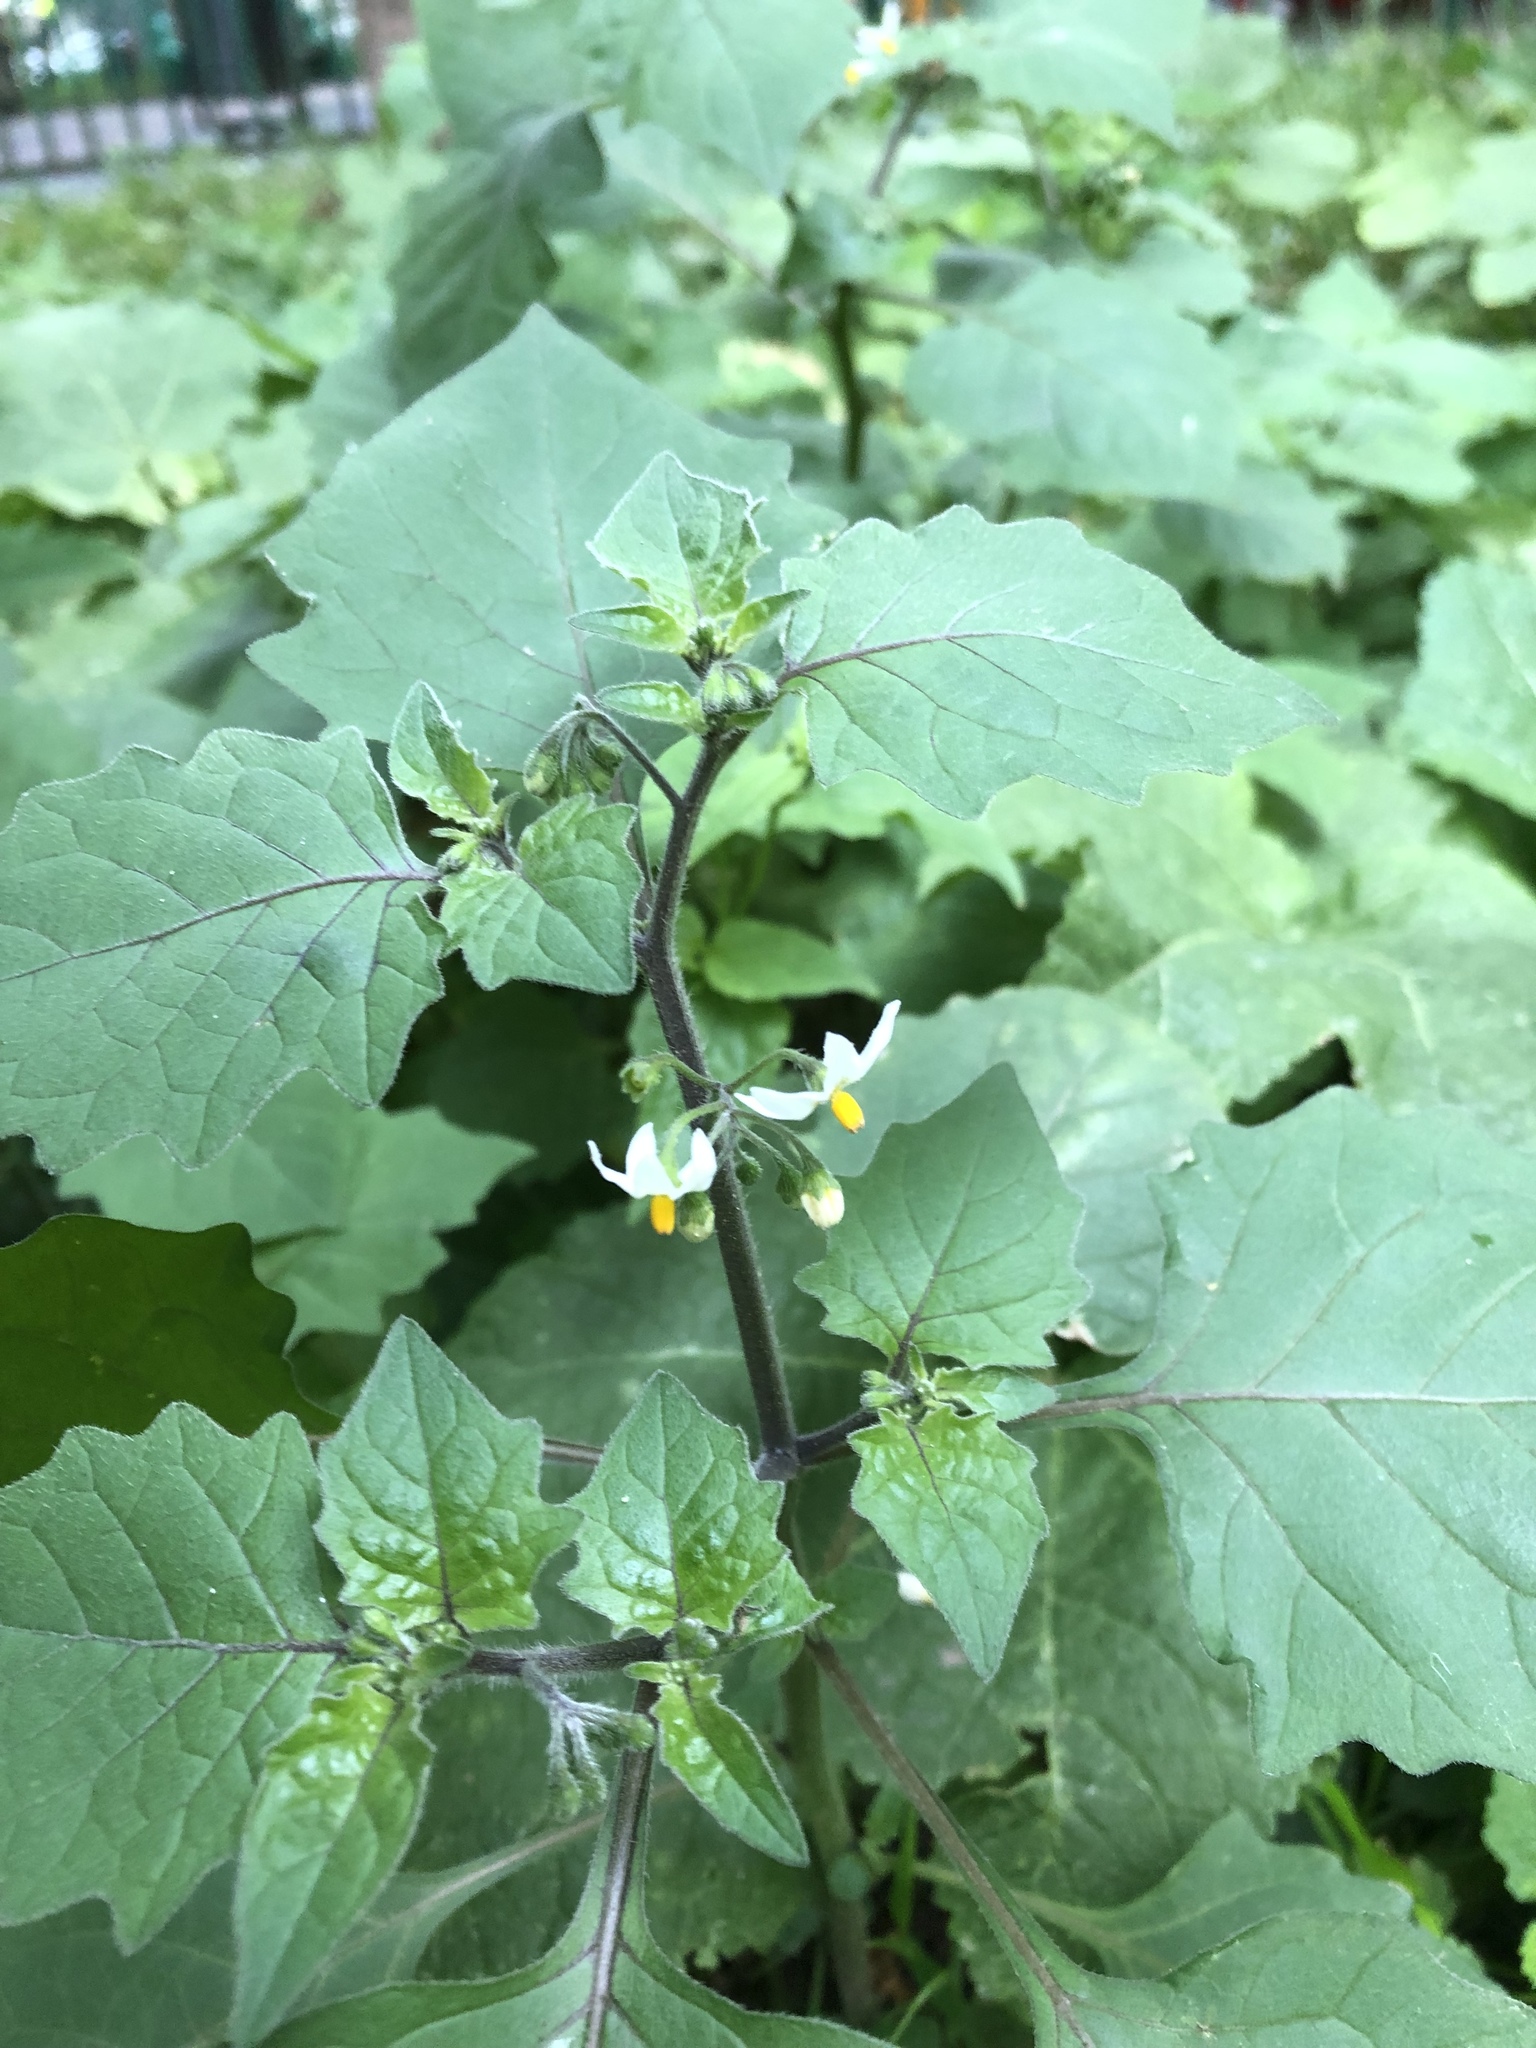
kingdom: Plantae
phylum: Tracheophyta
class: Magnoliopsida
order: Solanales
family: Solanaceae
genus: Solanum
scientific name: Solanum nigrum
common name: Black nightshade
